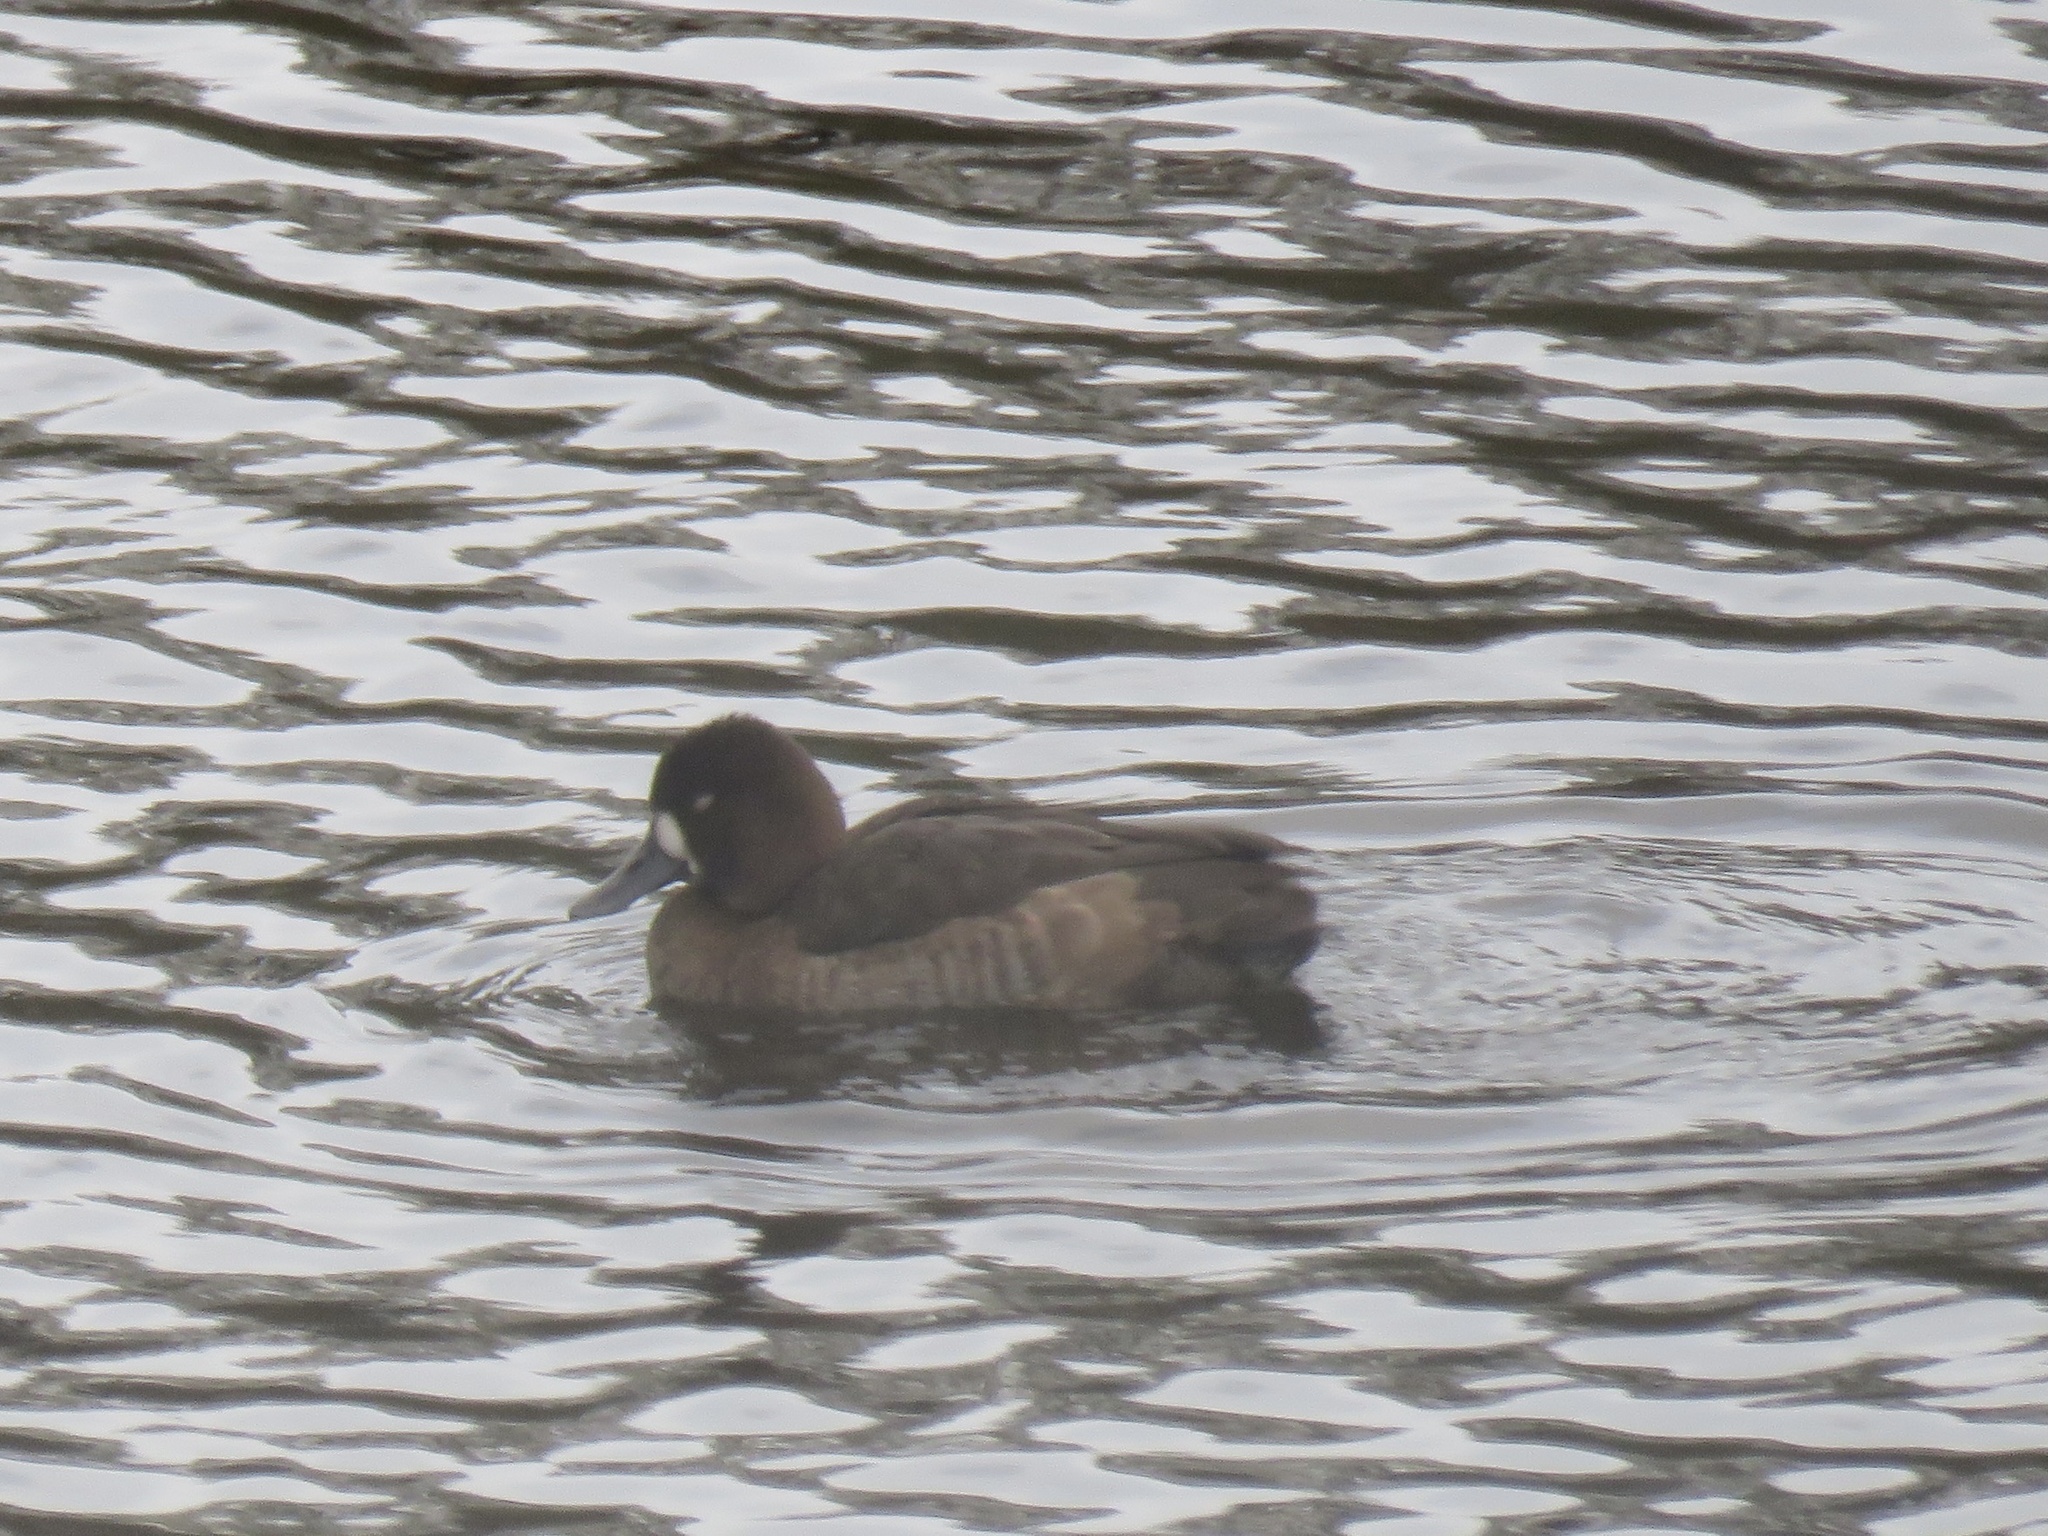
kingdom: Animalia
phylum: Chordata
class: Aves
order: Anseriformes
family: Anatidae
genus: Aythya
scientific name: Aythya affinis
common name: Lesser scaup
